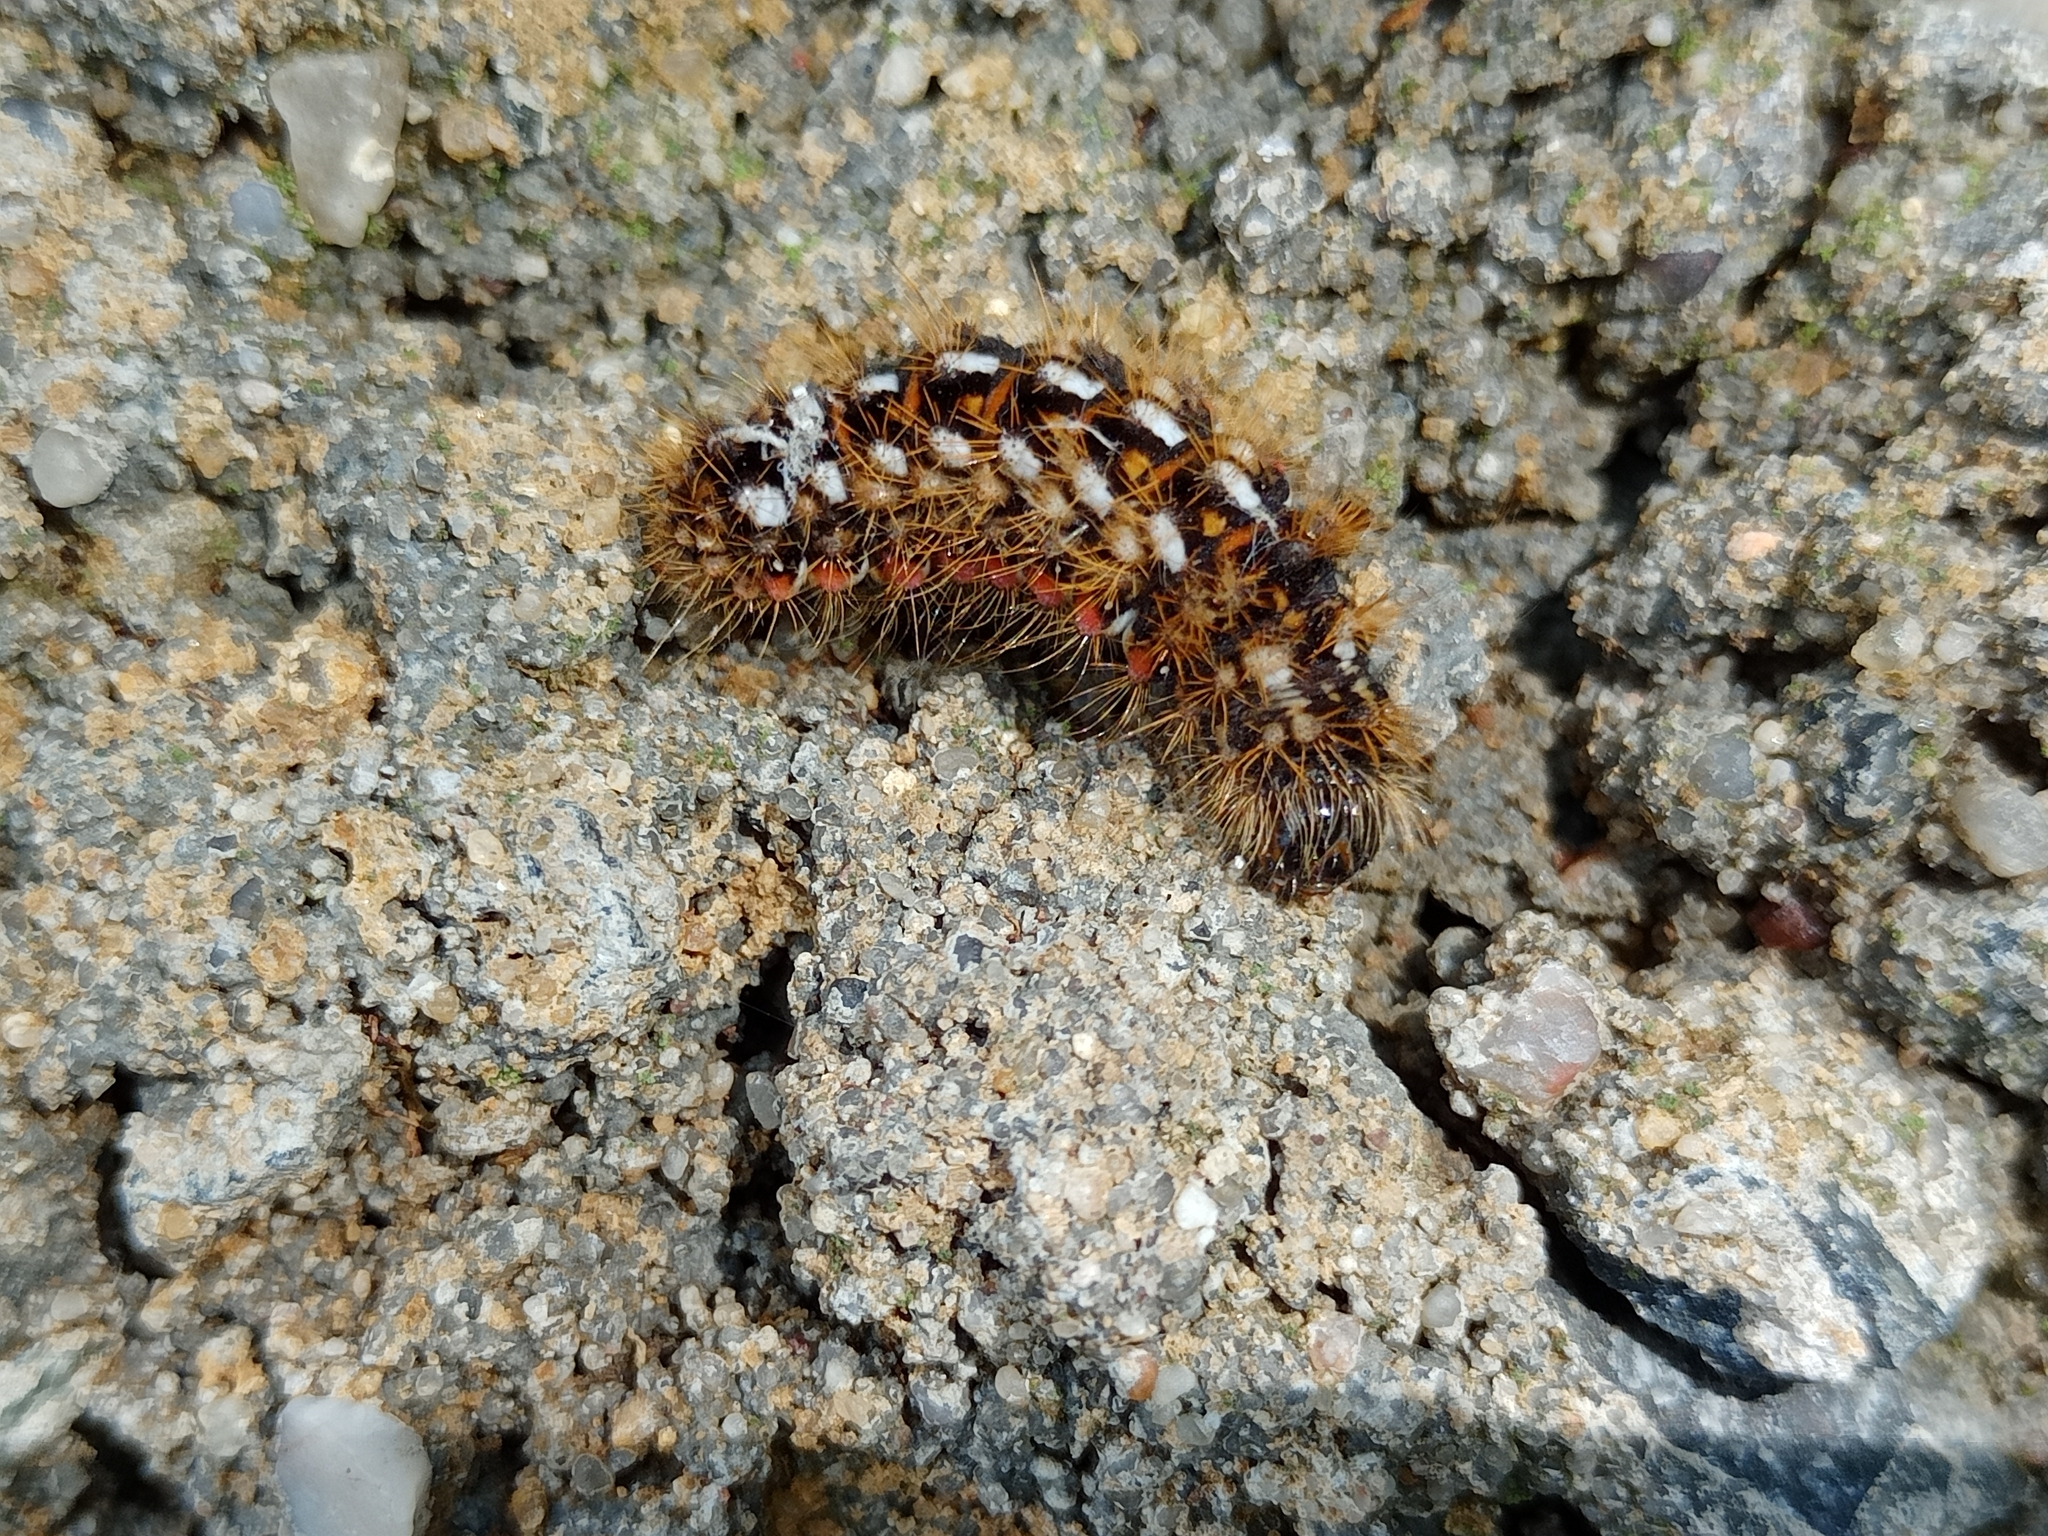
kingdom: Animalia
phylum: Arthropoda
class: Insecta
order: Lepidoptera
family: Noctuidae
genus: Acronicta
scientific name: Acronicta rumicis
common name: Knot grass
